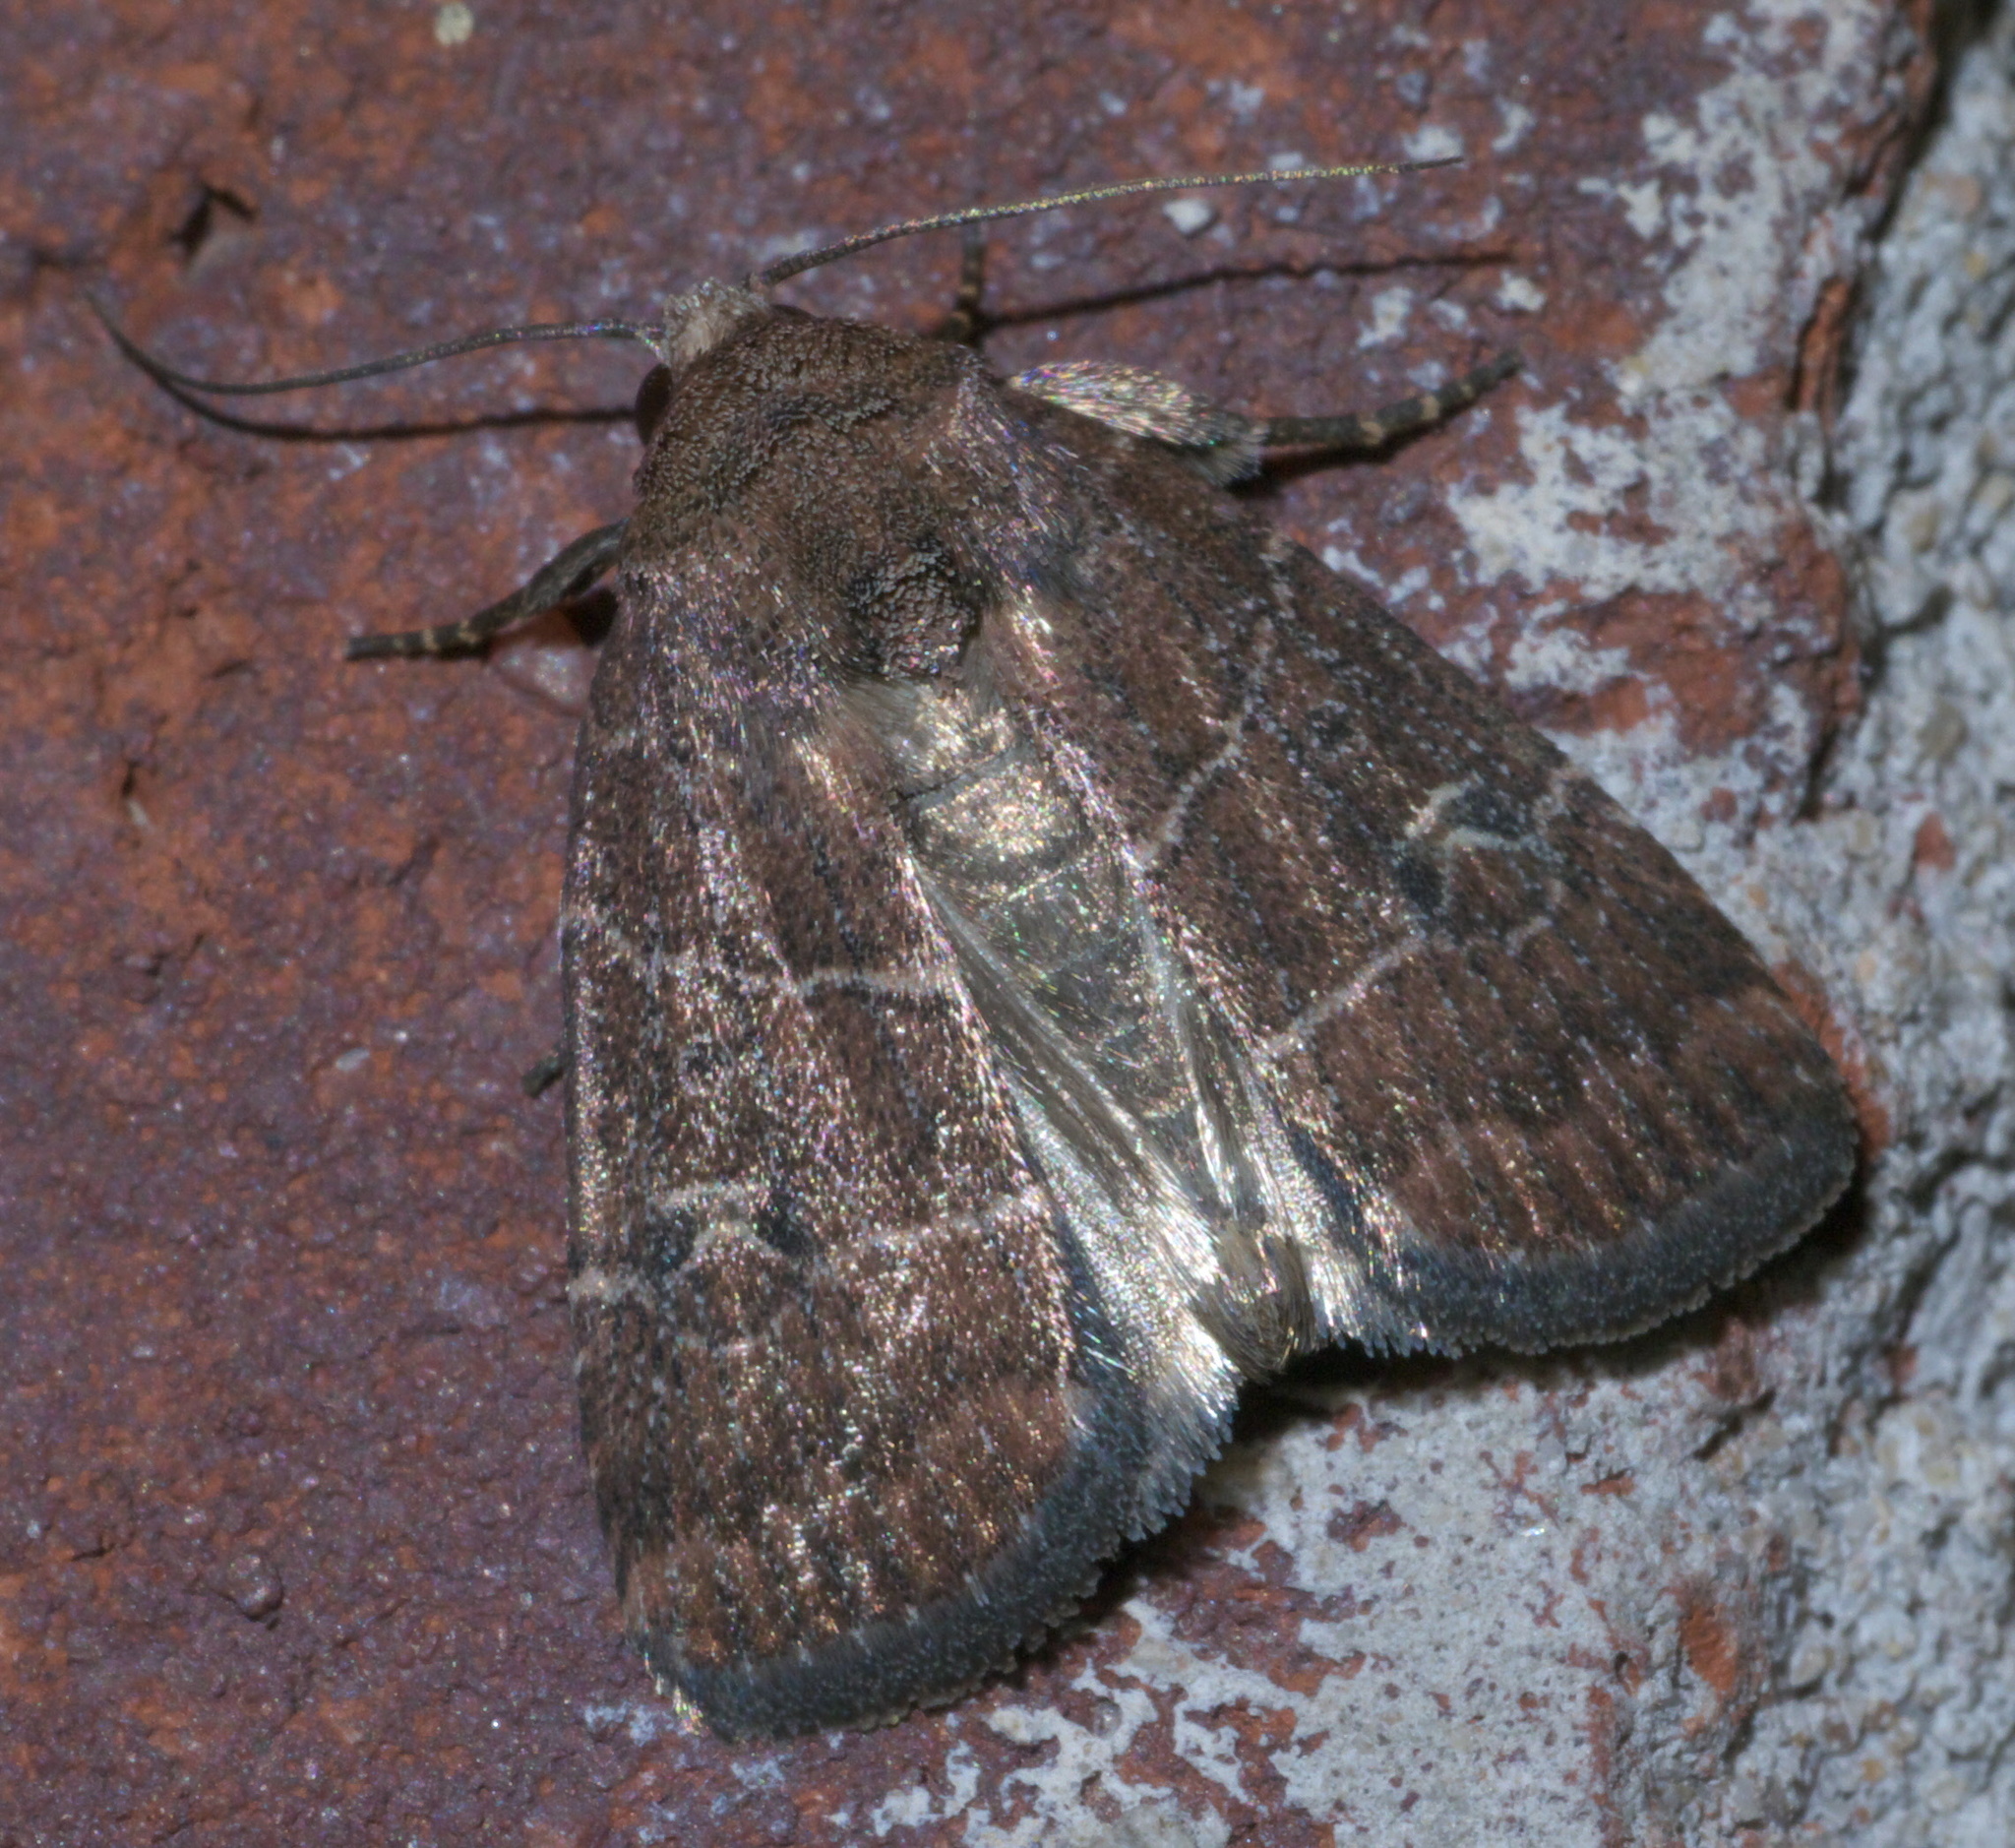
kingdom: Animalia
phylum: Arthropoda
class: Insecta
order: Lepidoptera
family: Noctuidae
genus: Elaphria
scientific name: Elaphria grata
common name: Grateful midget moth
